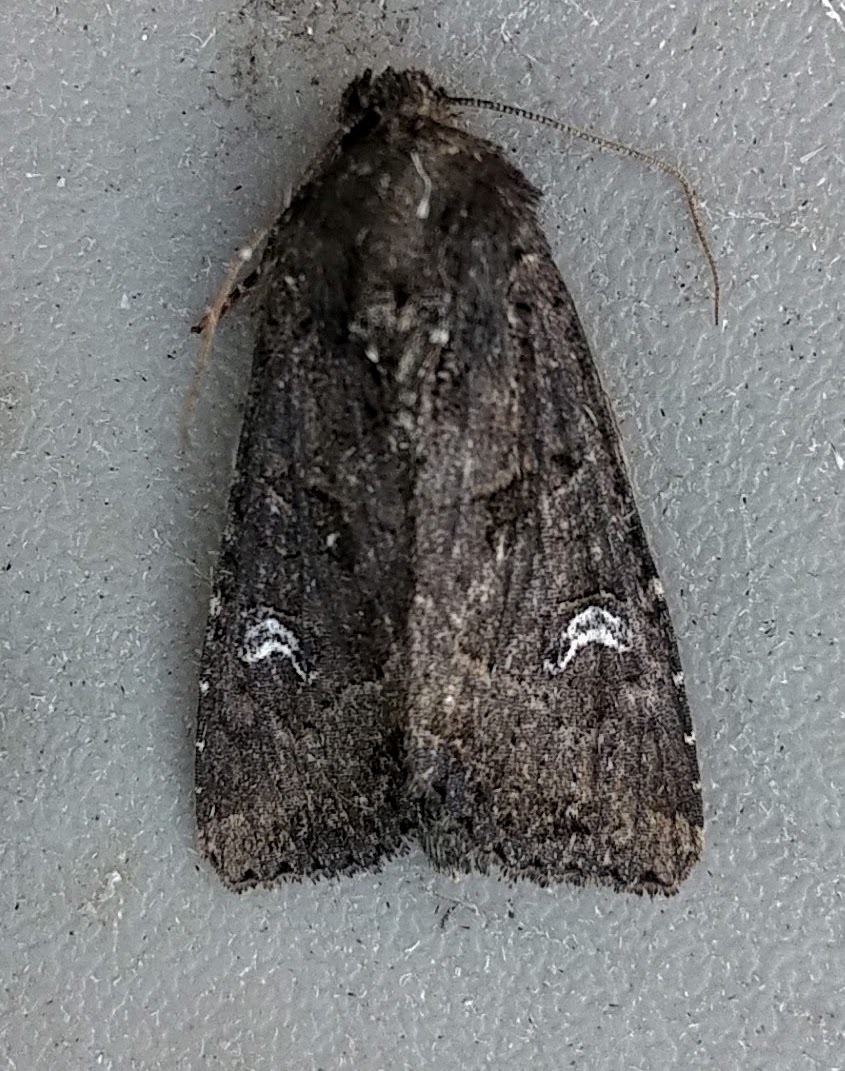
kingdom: Animalia
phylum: Arthropoda
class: Insecta
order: Lepidoptera
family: Noctuidae
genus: Helotropha
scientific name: Helotropha reniformis
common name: Kidney-spotted rustic moth
